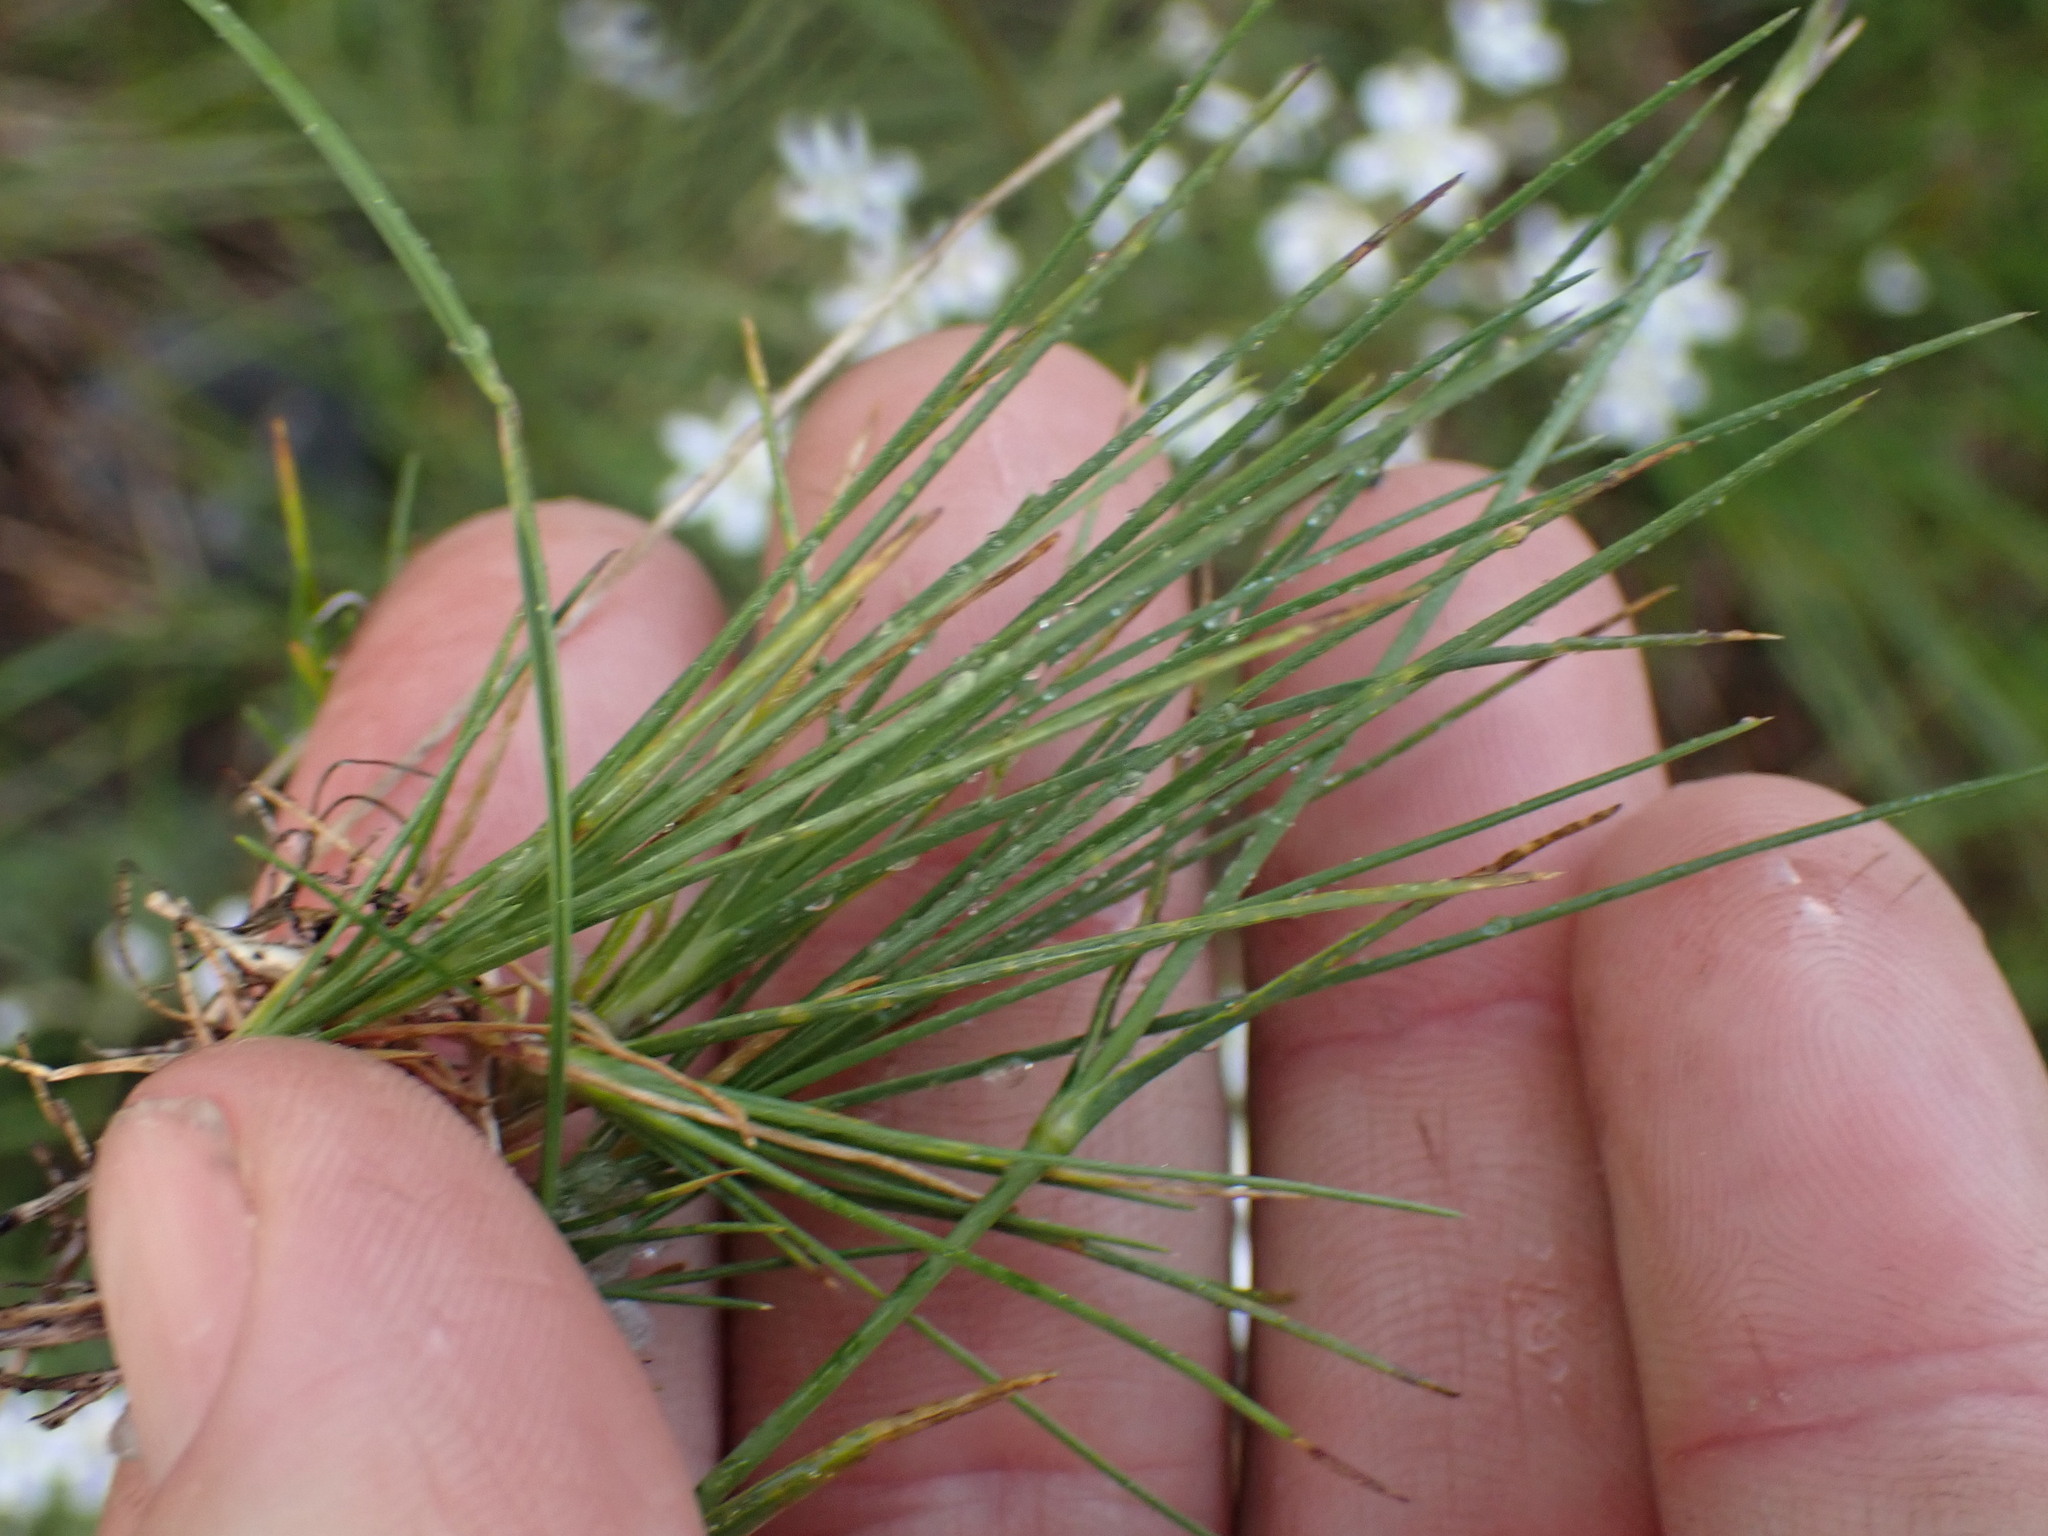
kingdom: Plantae
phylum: Tracheophyta
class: Magnoliopsida
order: Caryophyllales
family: Caryophyllaceae
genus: Eremogone
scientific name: Eremogone capillaris
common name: Slender mountain sandwort
